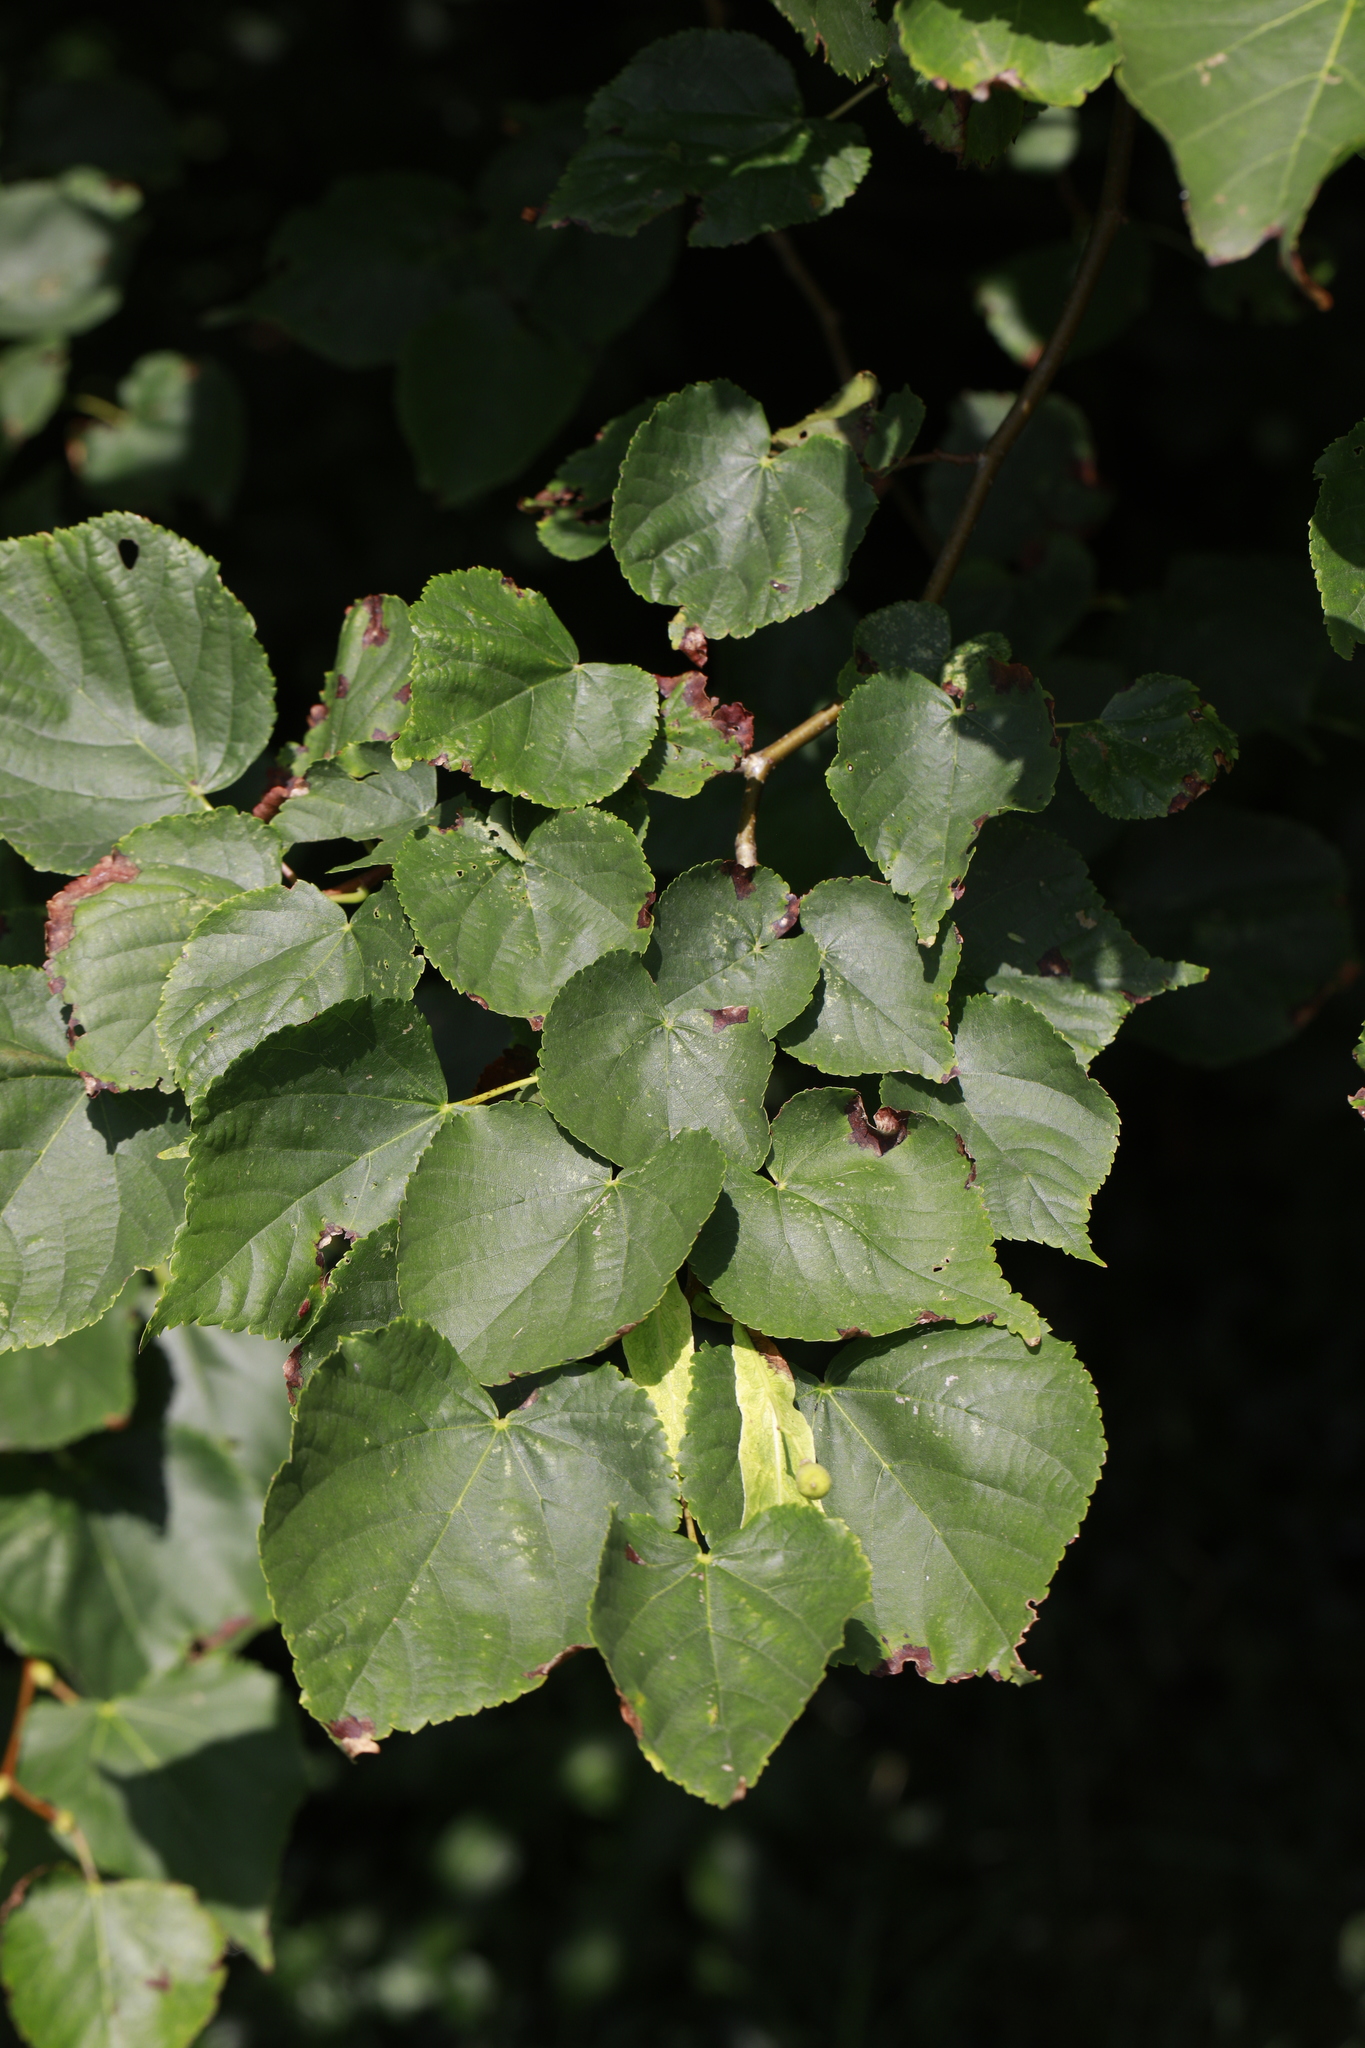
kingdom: Plantae
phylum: Tracheophyta
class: Magnoliopsida
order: Malvales
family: Malvaceae
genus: Tilia
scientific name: Tilia europaea
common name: European linden
